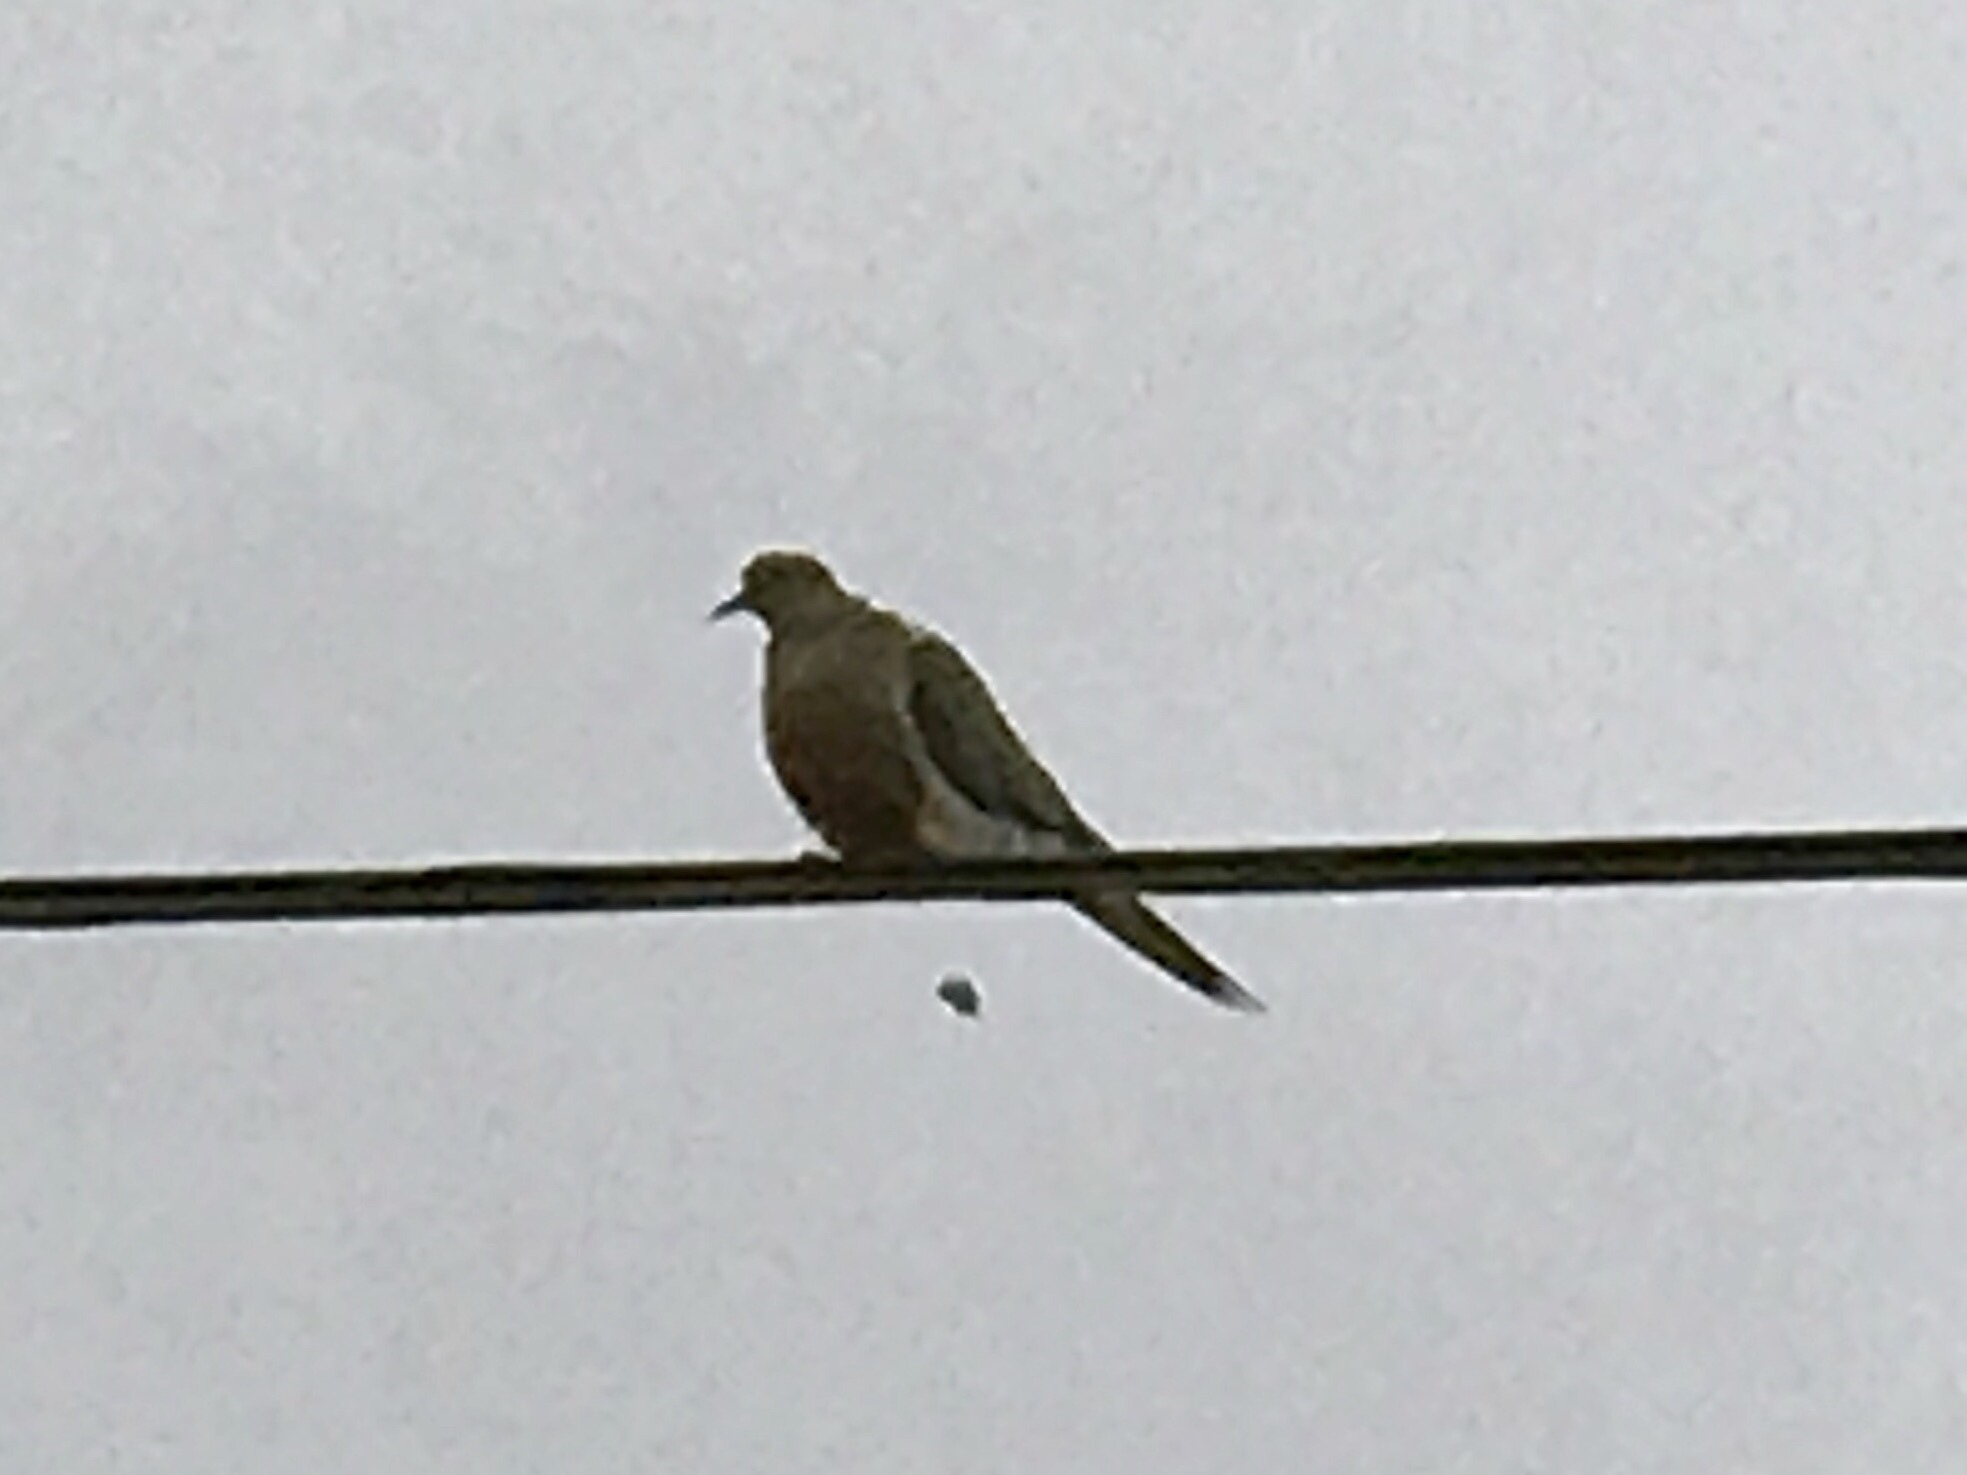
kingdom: Animalia
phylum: Chordata
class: Aves
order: Columbiformes
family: Columbidae
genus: Zenaida
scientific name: Zenaida macroura
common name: Mourning dove
